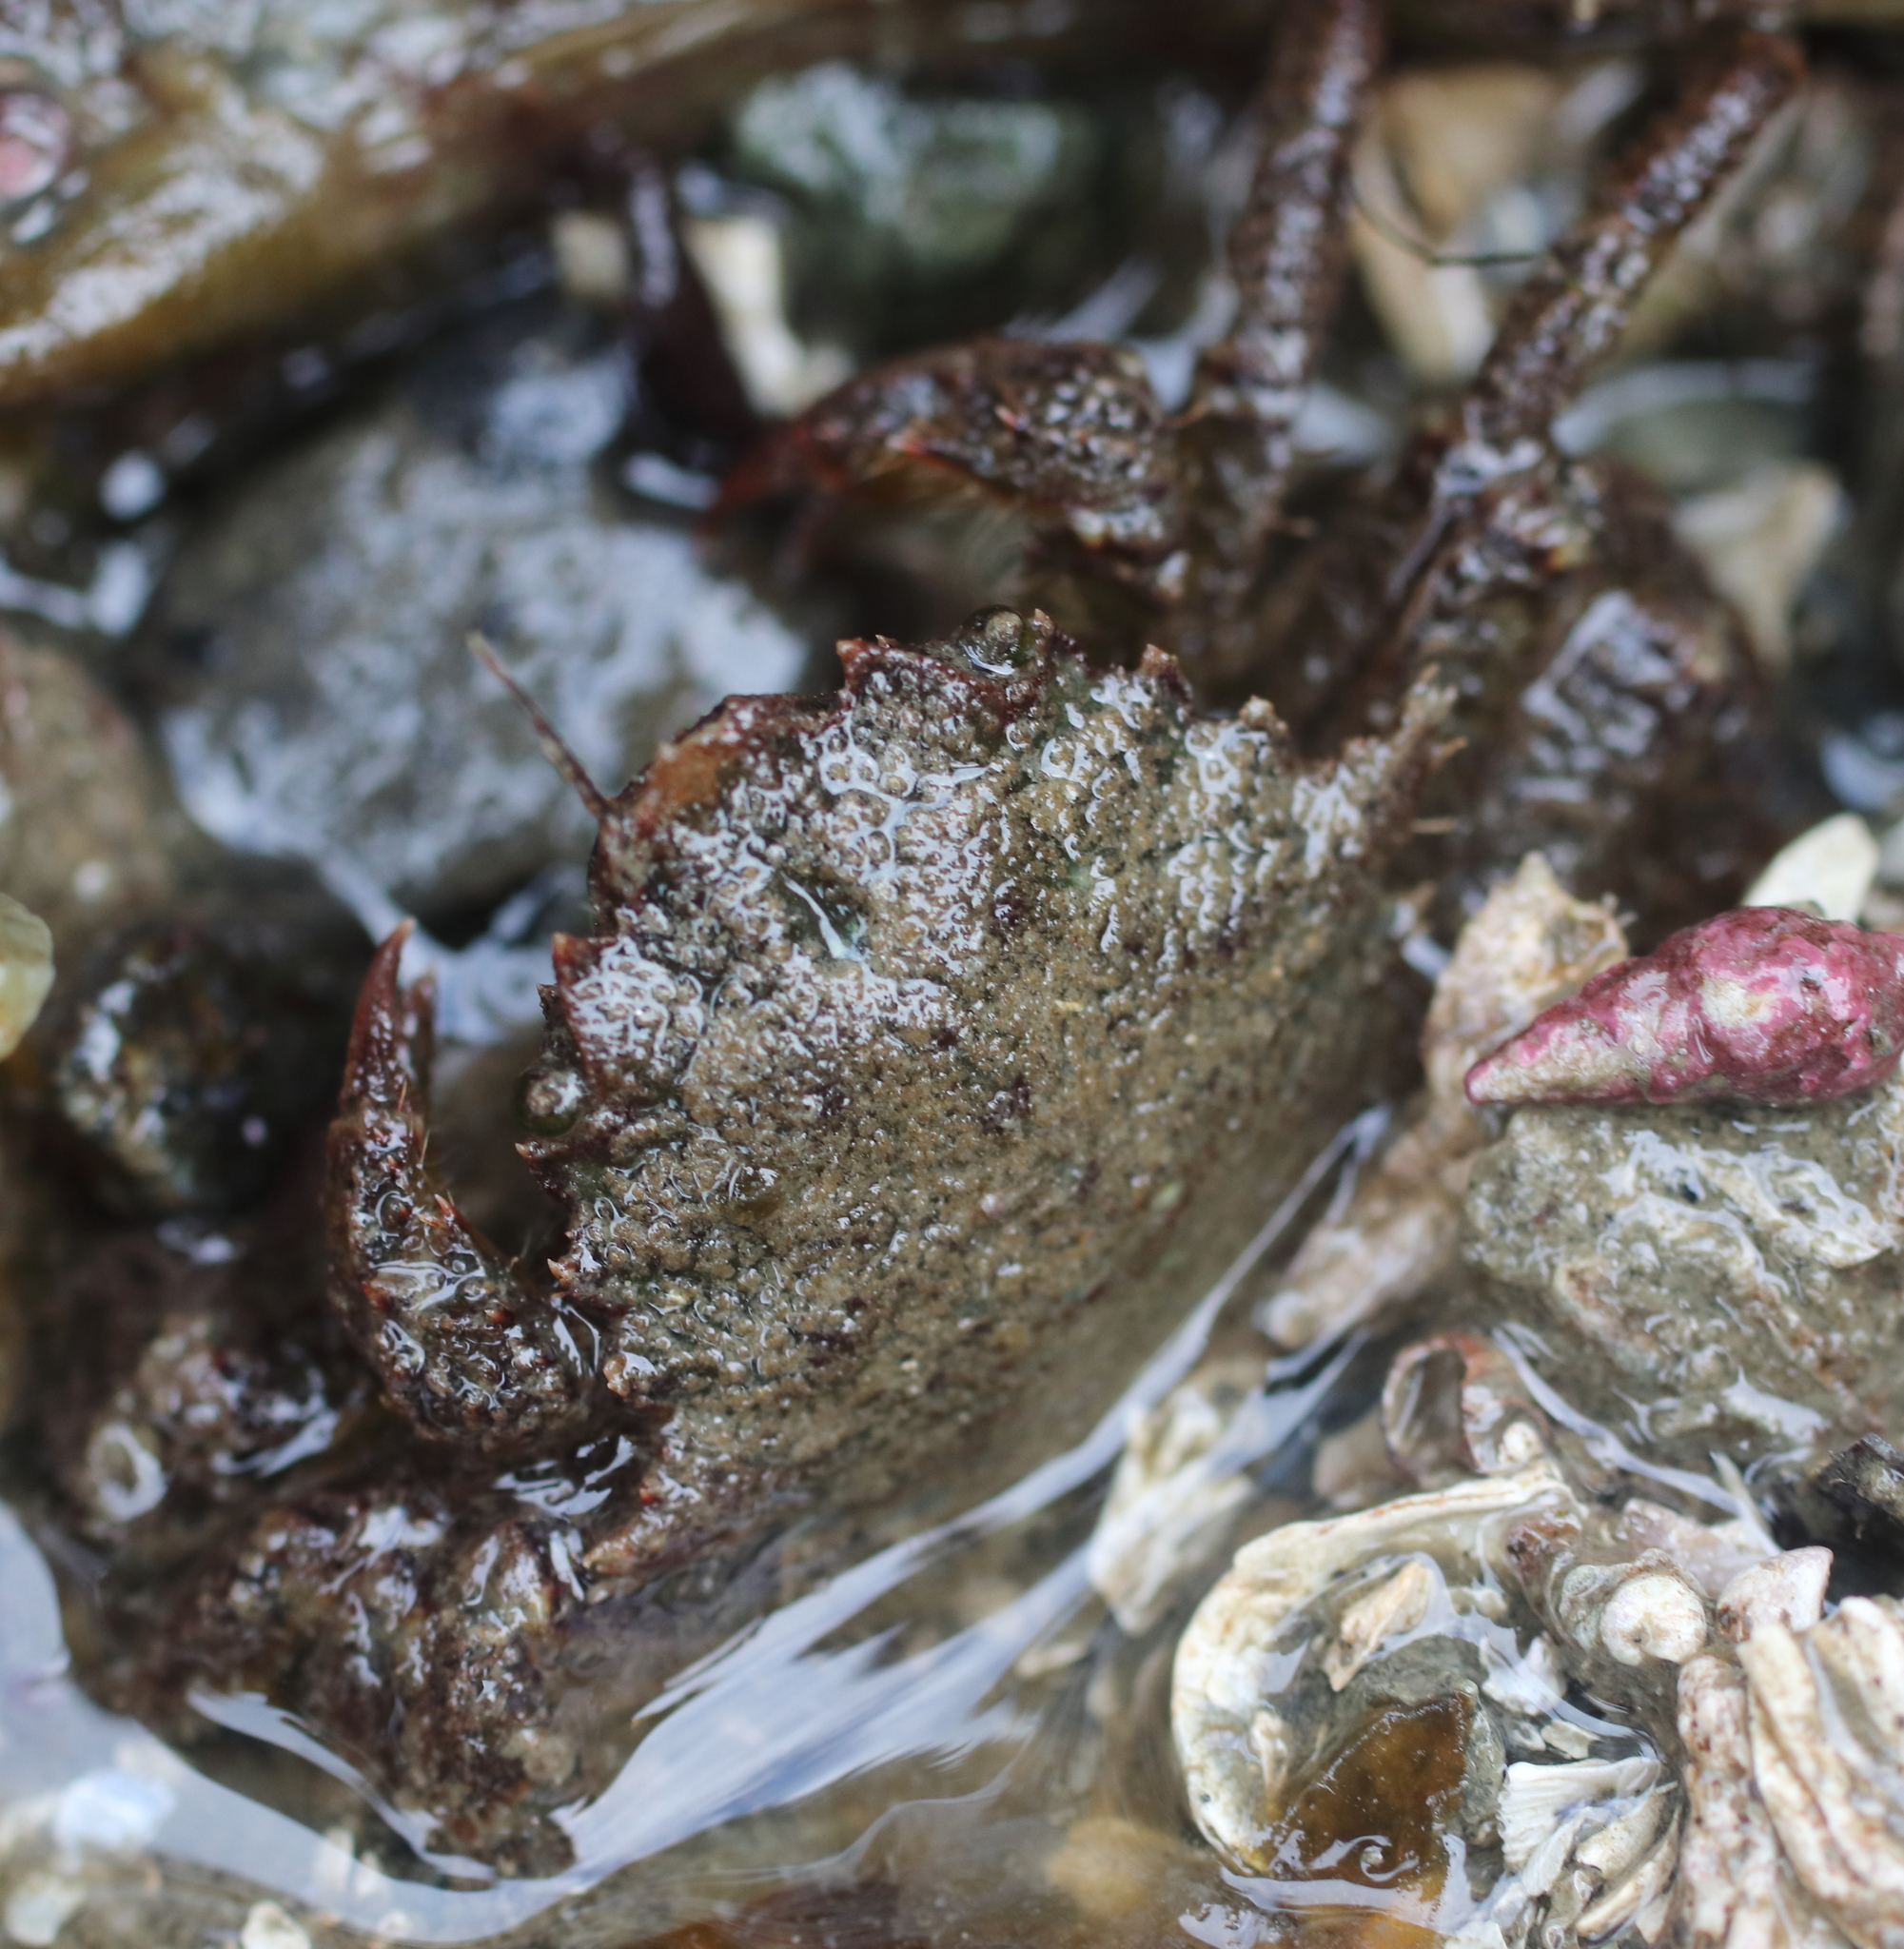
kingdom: Animalia
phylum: Arthropoda
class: Malacostraca
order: Decapoda
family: Cheiragonidae
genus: Telmessus
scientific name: Telmessus cheiragonus
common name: Helmet crab
